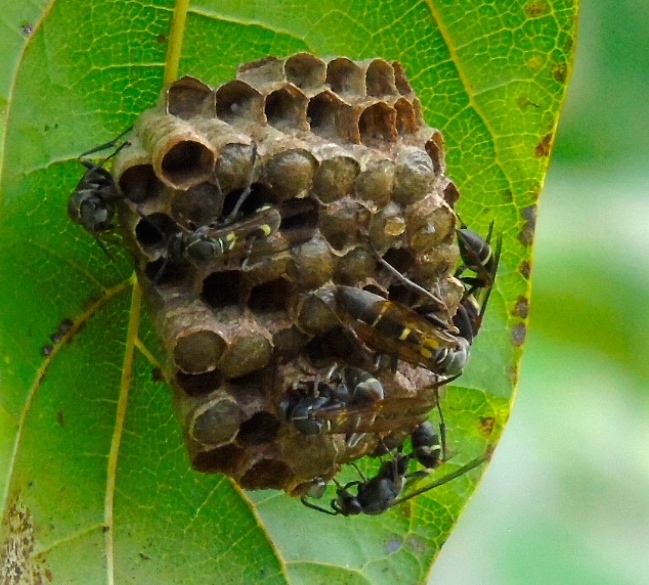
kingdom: Animalia
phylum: Arthropoda
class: Insecta
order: Hymenoptera
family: Vespidae
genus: Mischocyttarus
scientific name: Mischocyttarus
